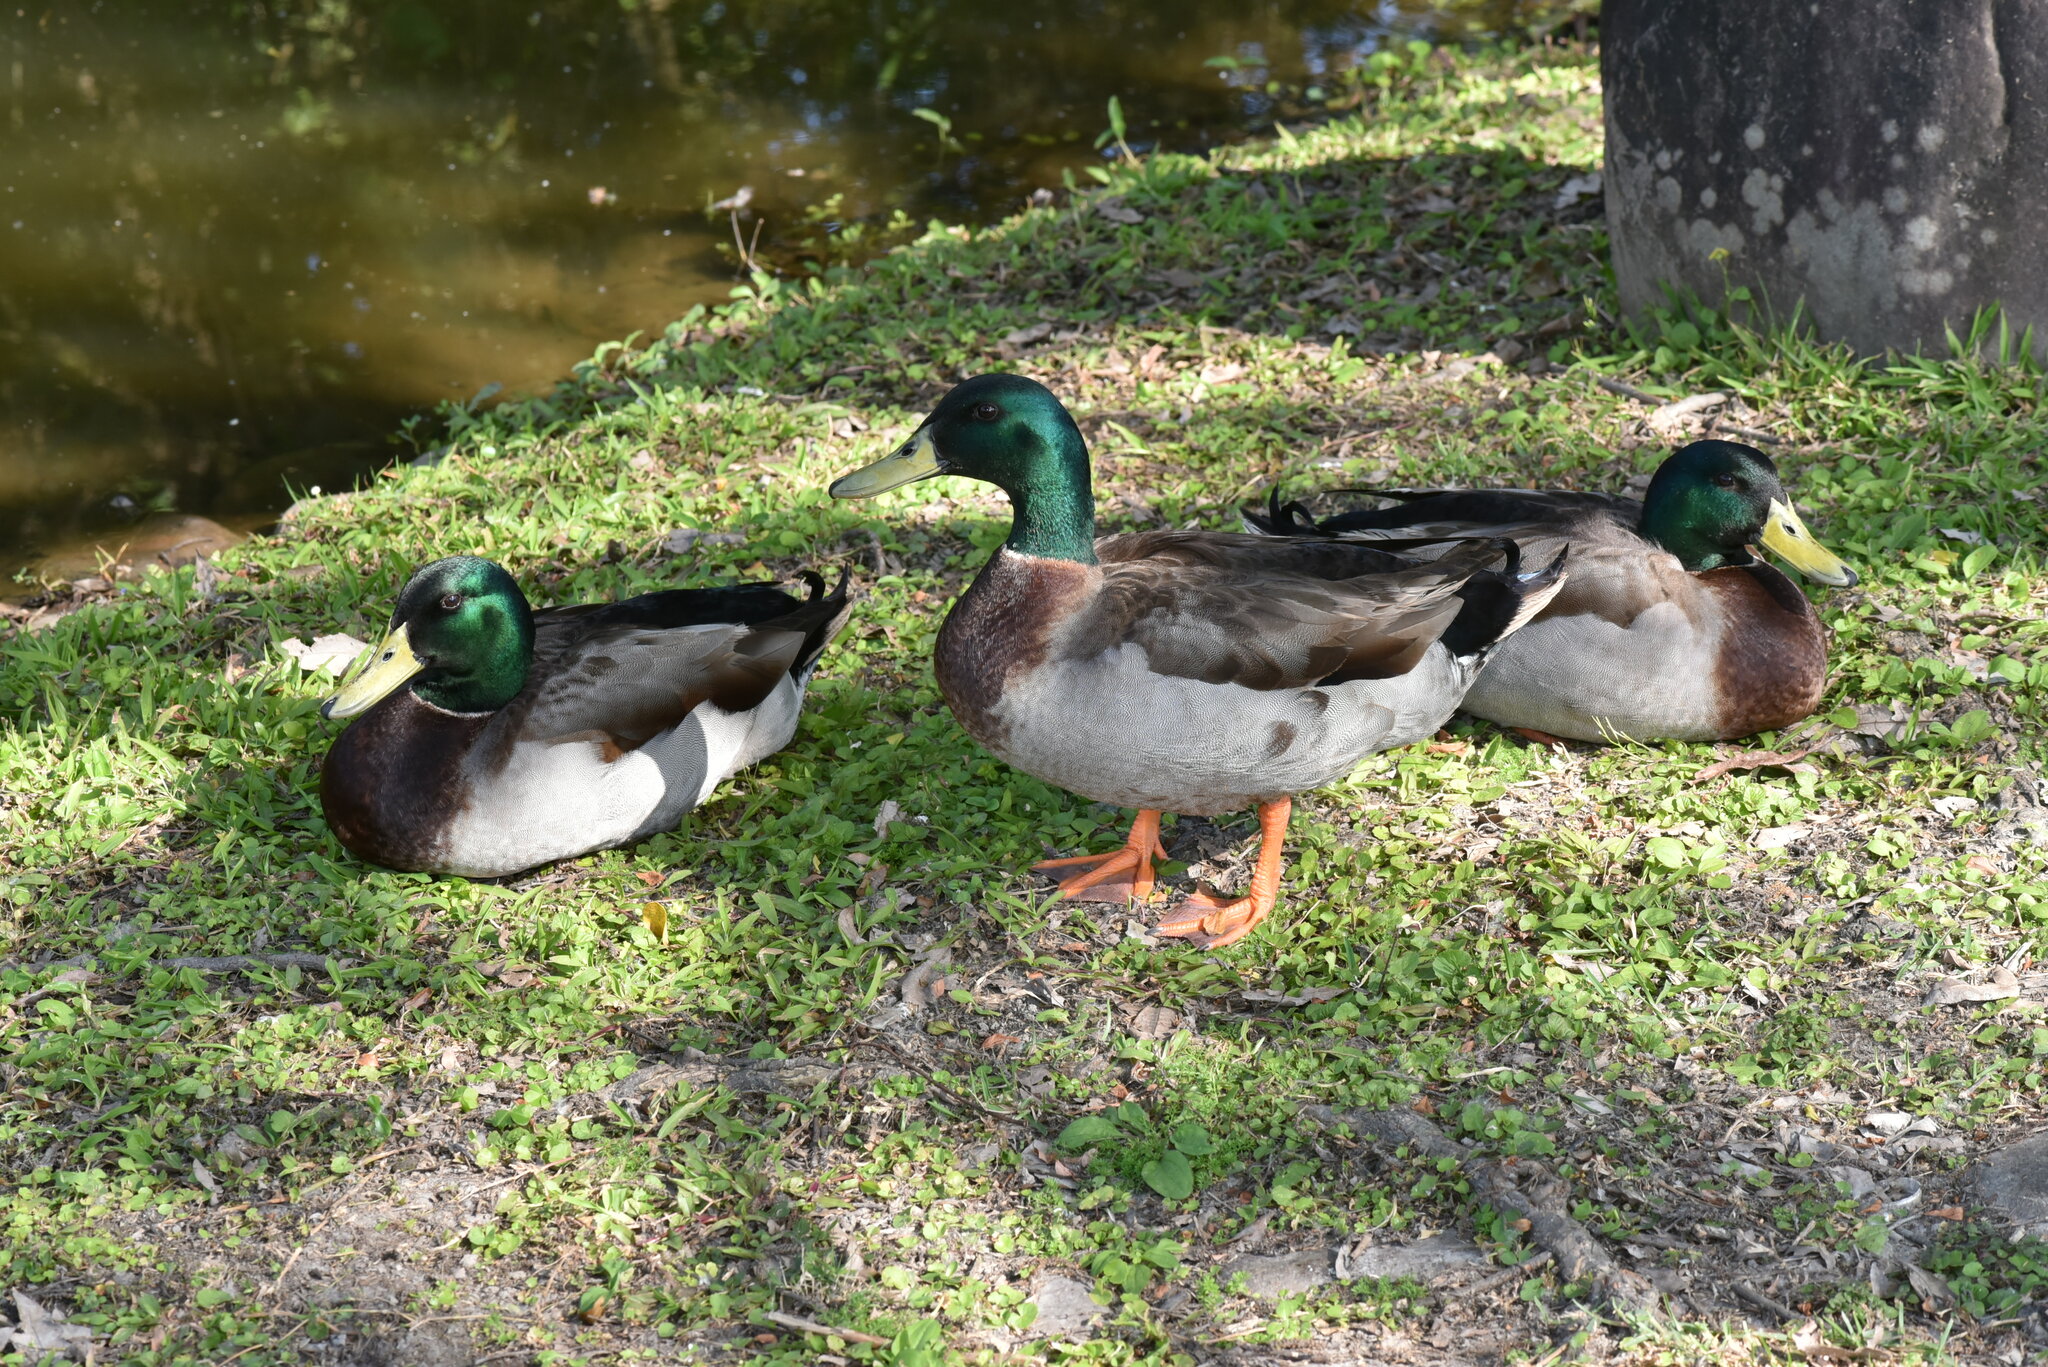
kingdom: Animalia
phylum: Chordata
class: Aves
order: Anseriformes
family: Anatidae
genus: Anas
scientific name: Anas platyrhynchos
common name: Mallard
